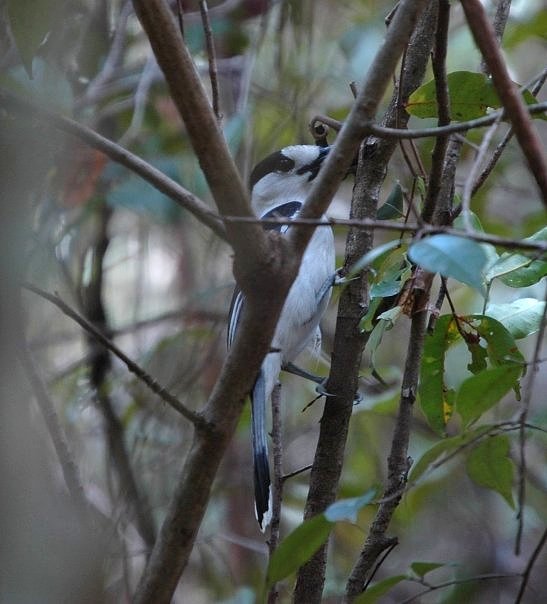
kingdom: Animalia
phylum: Chordata
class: Aves
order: Passeriformes
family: Vangidae
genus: Vanga
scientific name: Vanga curvirostris
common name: Hook-billed vanga
